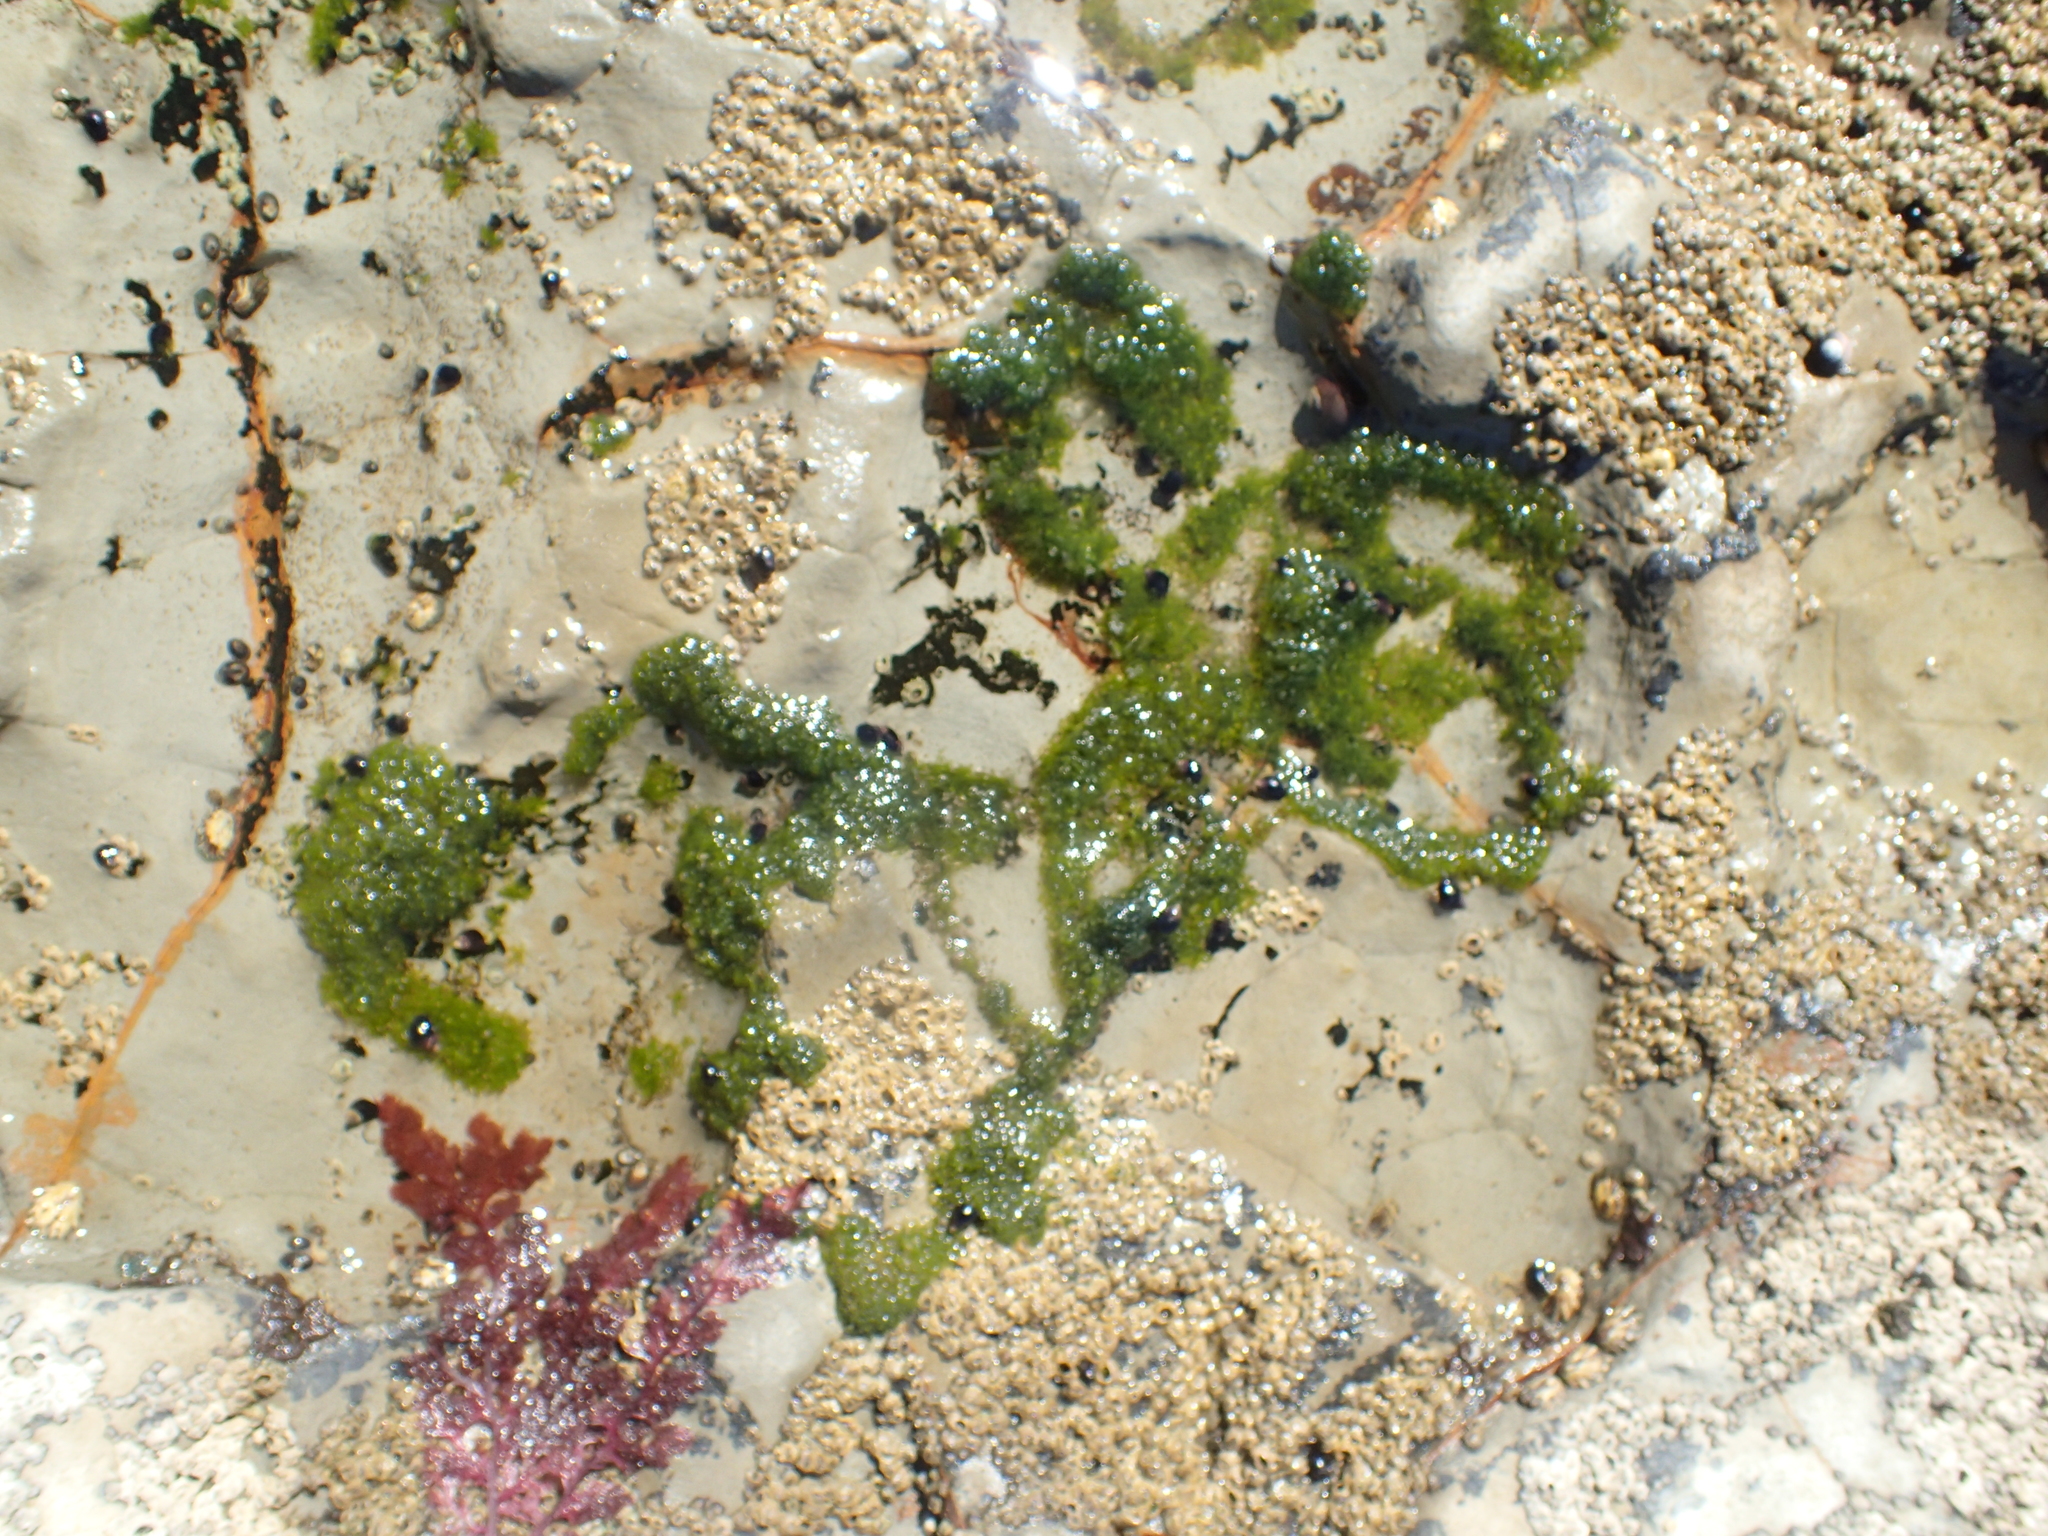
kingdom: Plantae
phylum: Chlorophyta
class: Ulvophyceae
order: Cladophorales
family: Cladophoraceae
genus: Cladophora
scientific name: Cladophora columbiana
